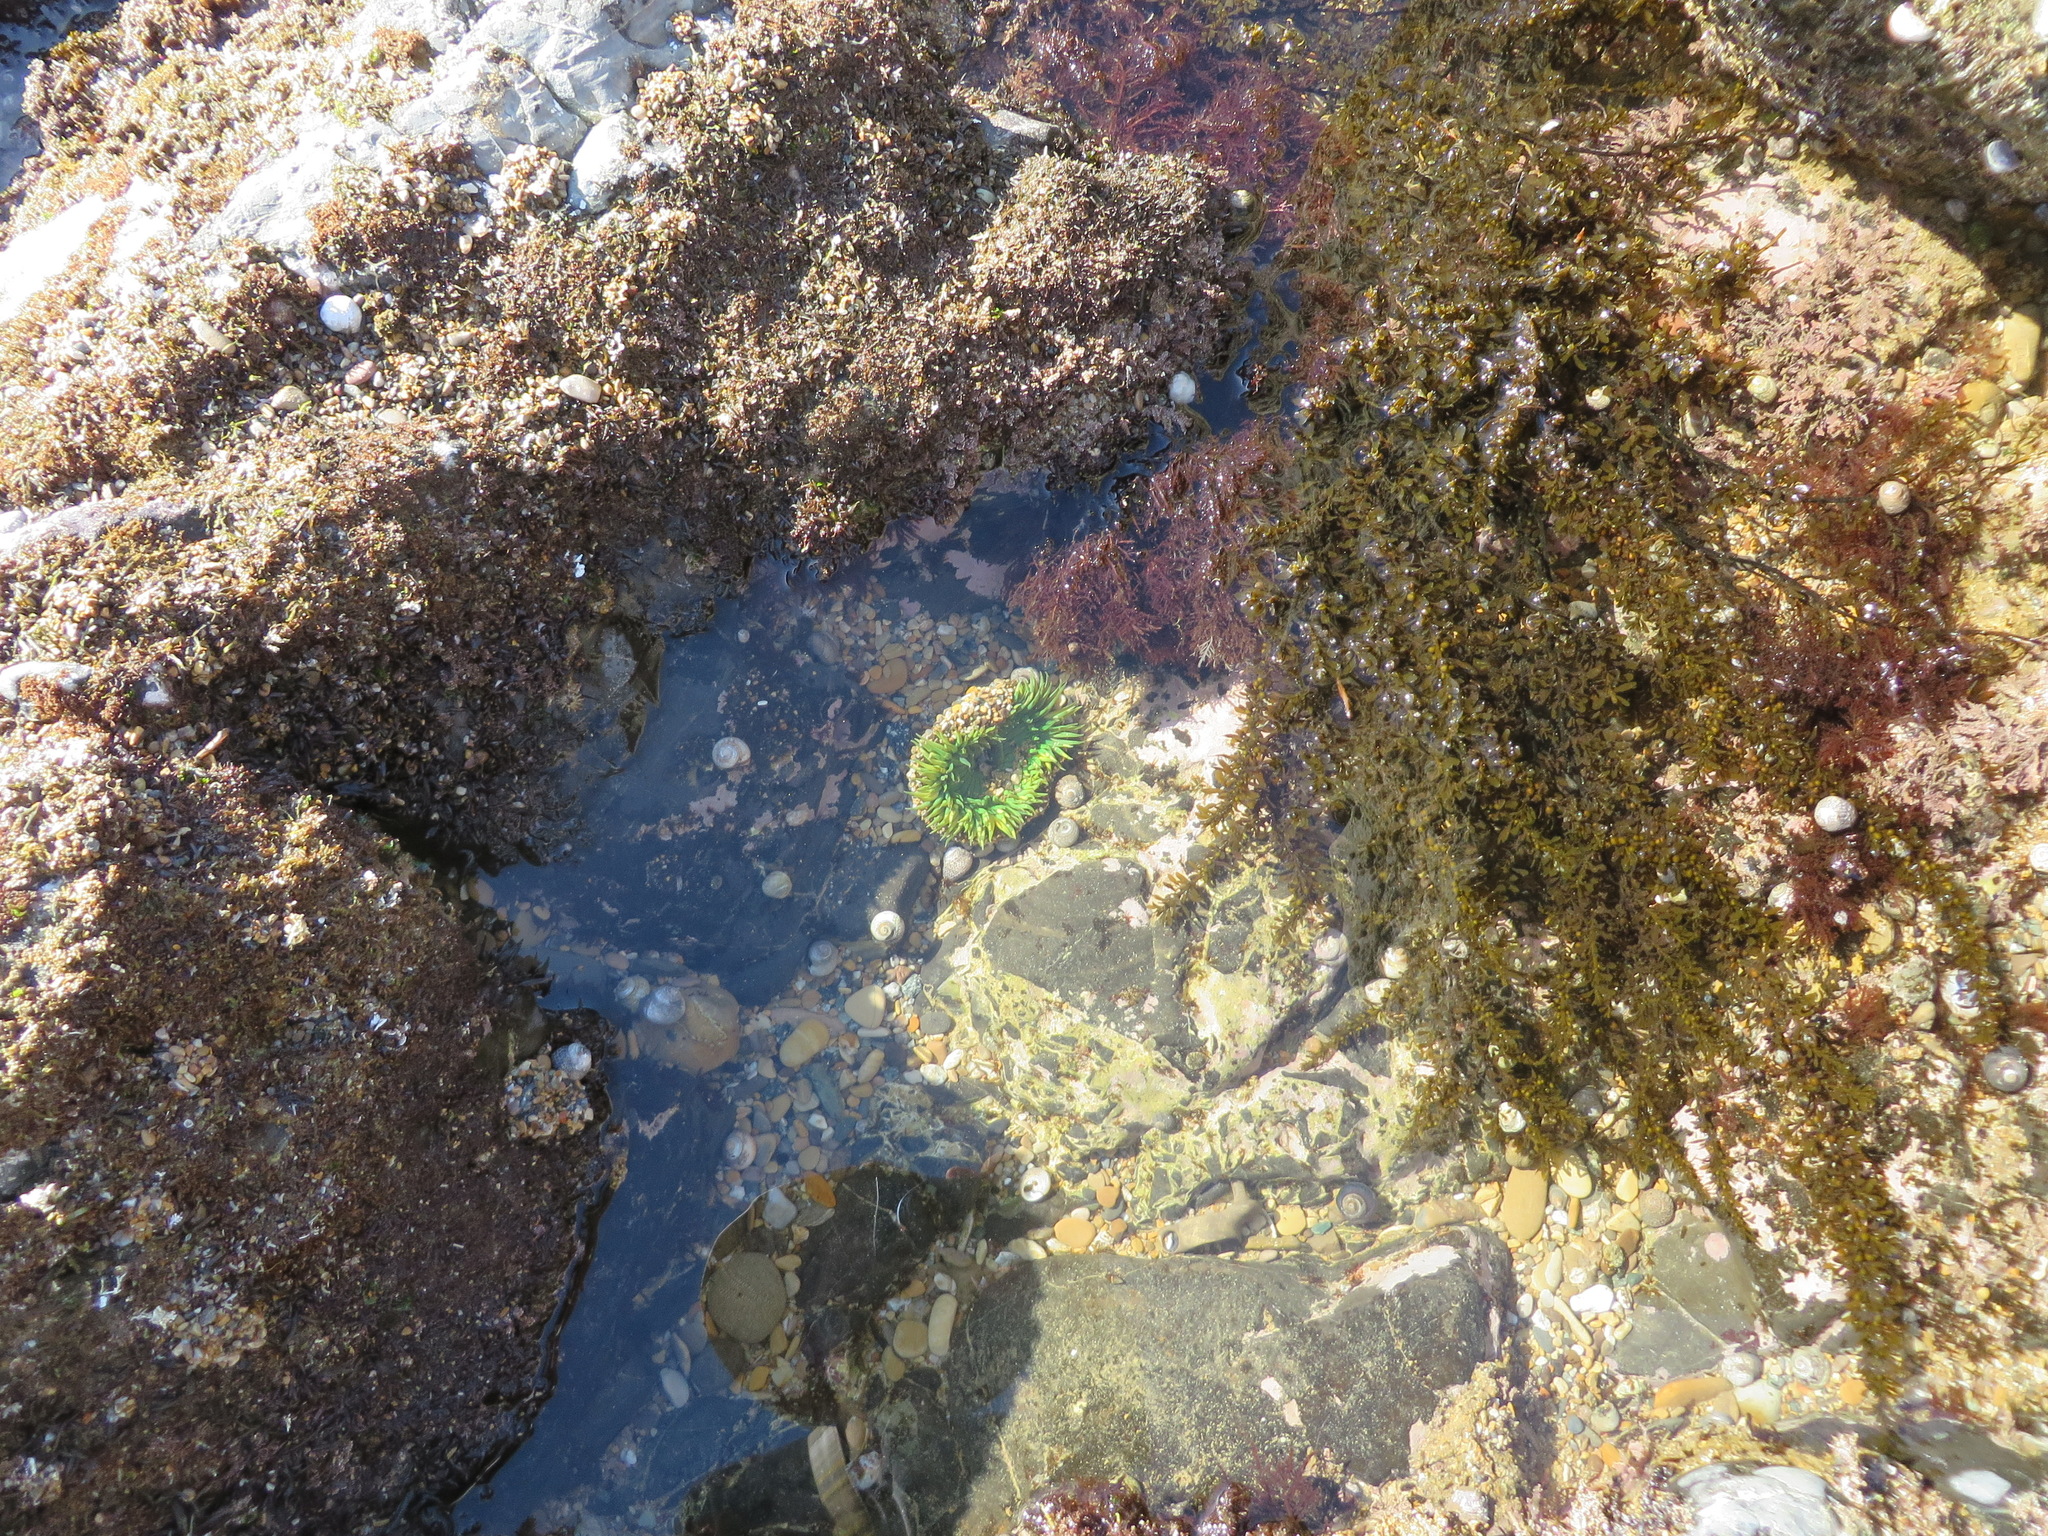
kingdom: Animalia
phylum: Cnidaria
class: Anthozoa
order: Actiniaria
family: Actiniidae
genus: Anthopleura
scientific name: Anthopleura sola
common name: Sun anemone
